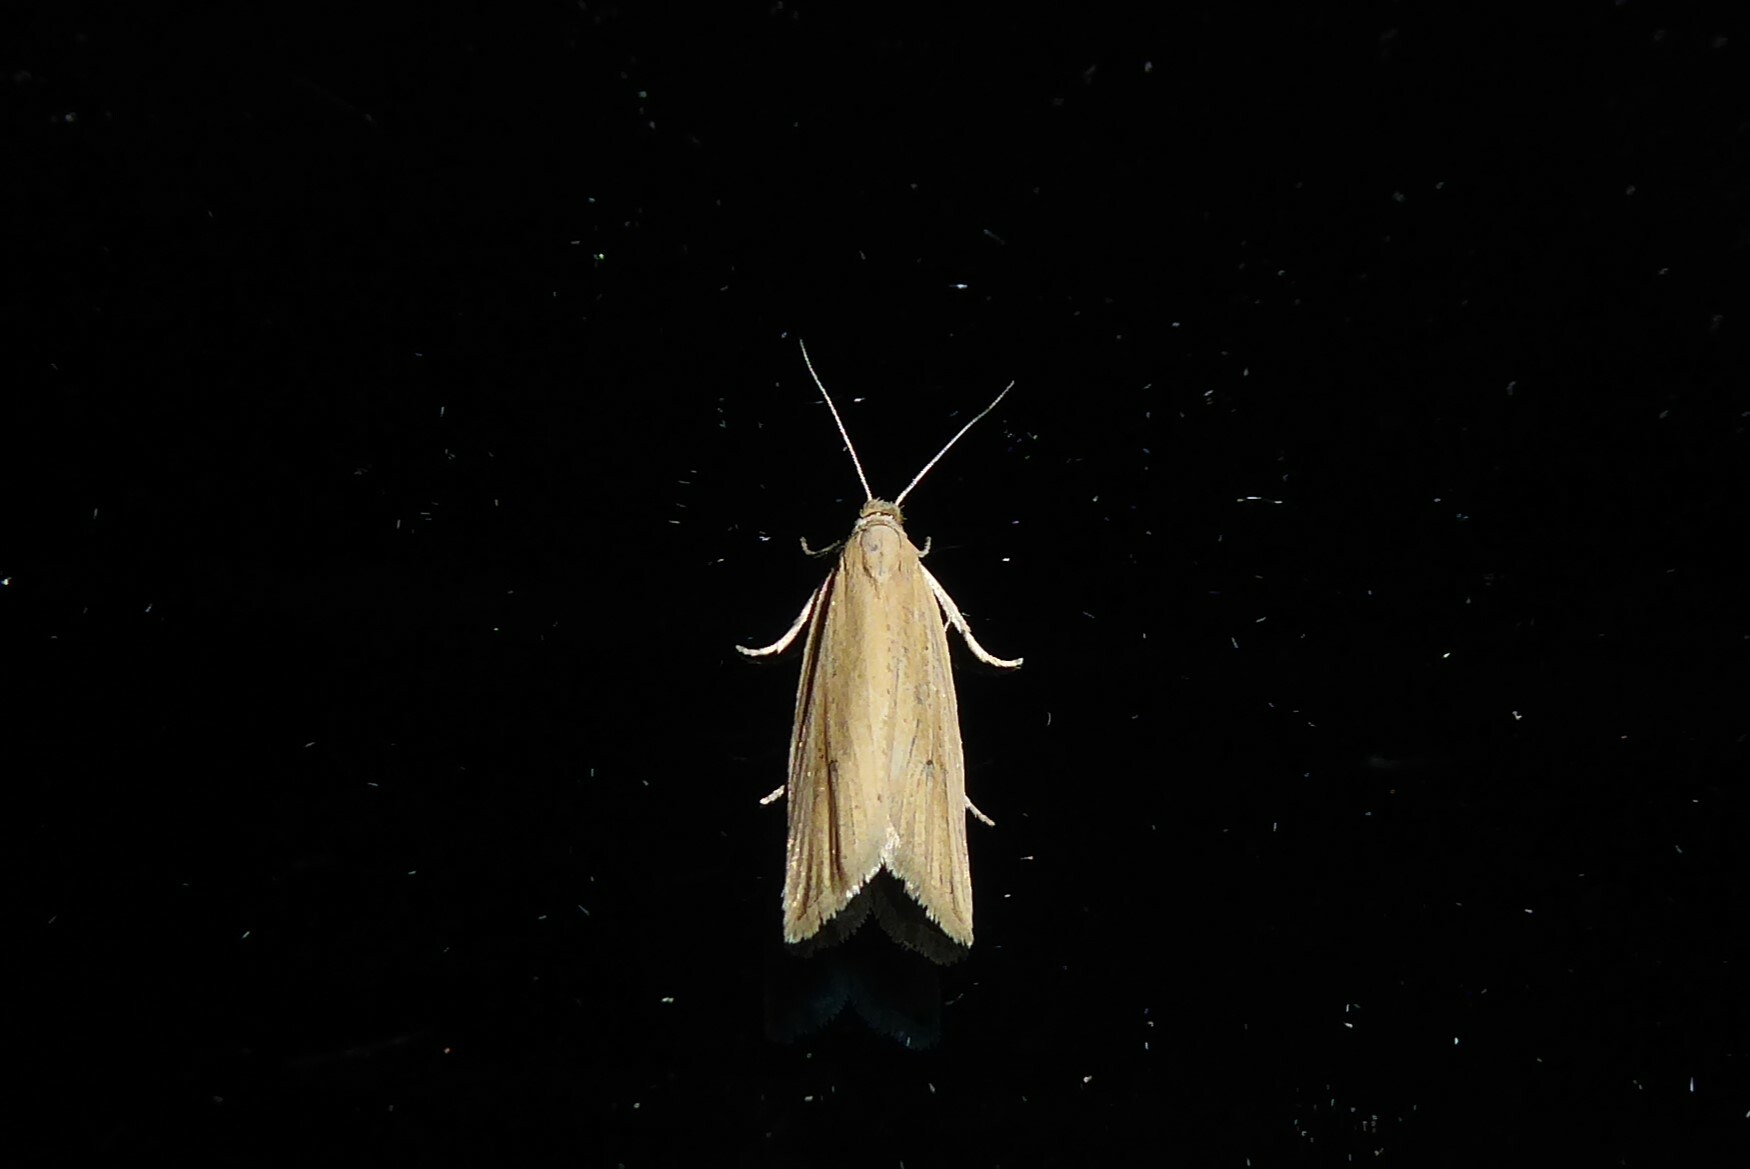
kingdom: Animalia
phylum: Arthropoda
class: Insecta
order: Lepidoptera
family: Tortricidae
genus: Bactra
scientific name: Bactra noteraula
